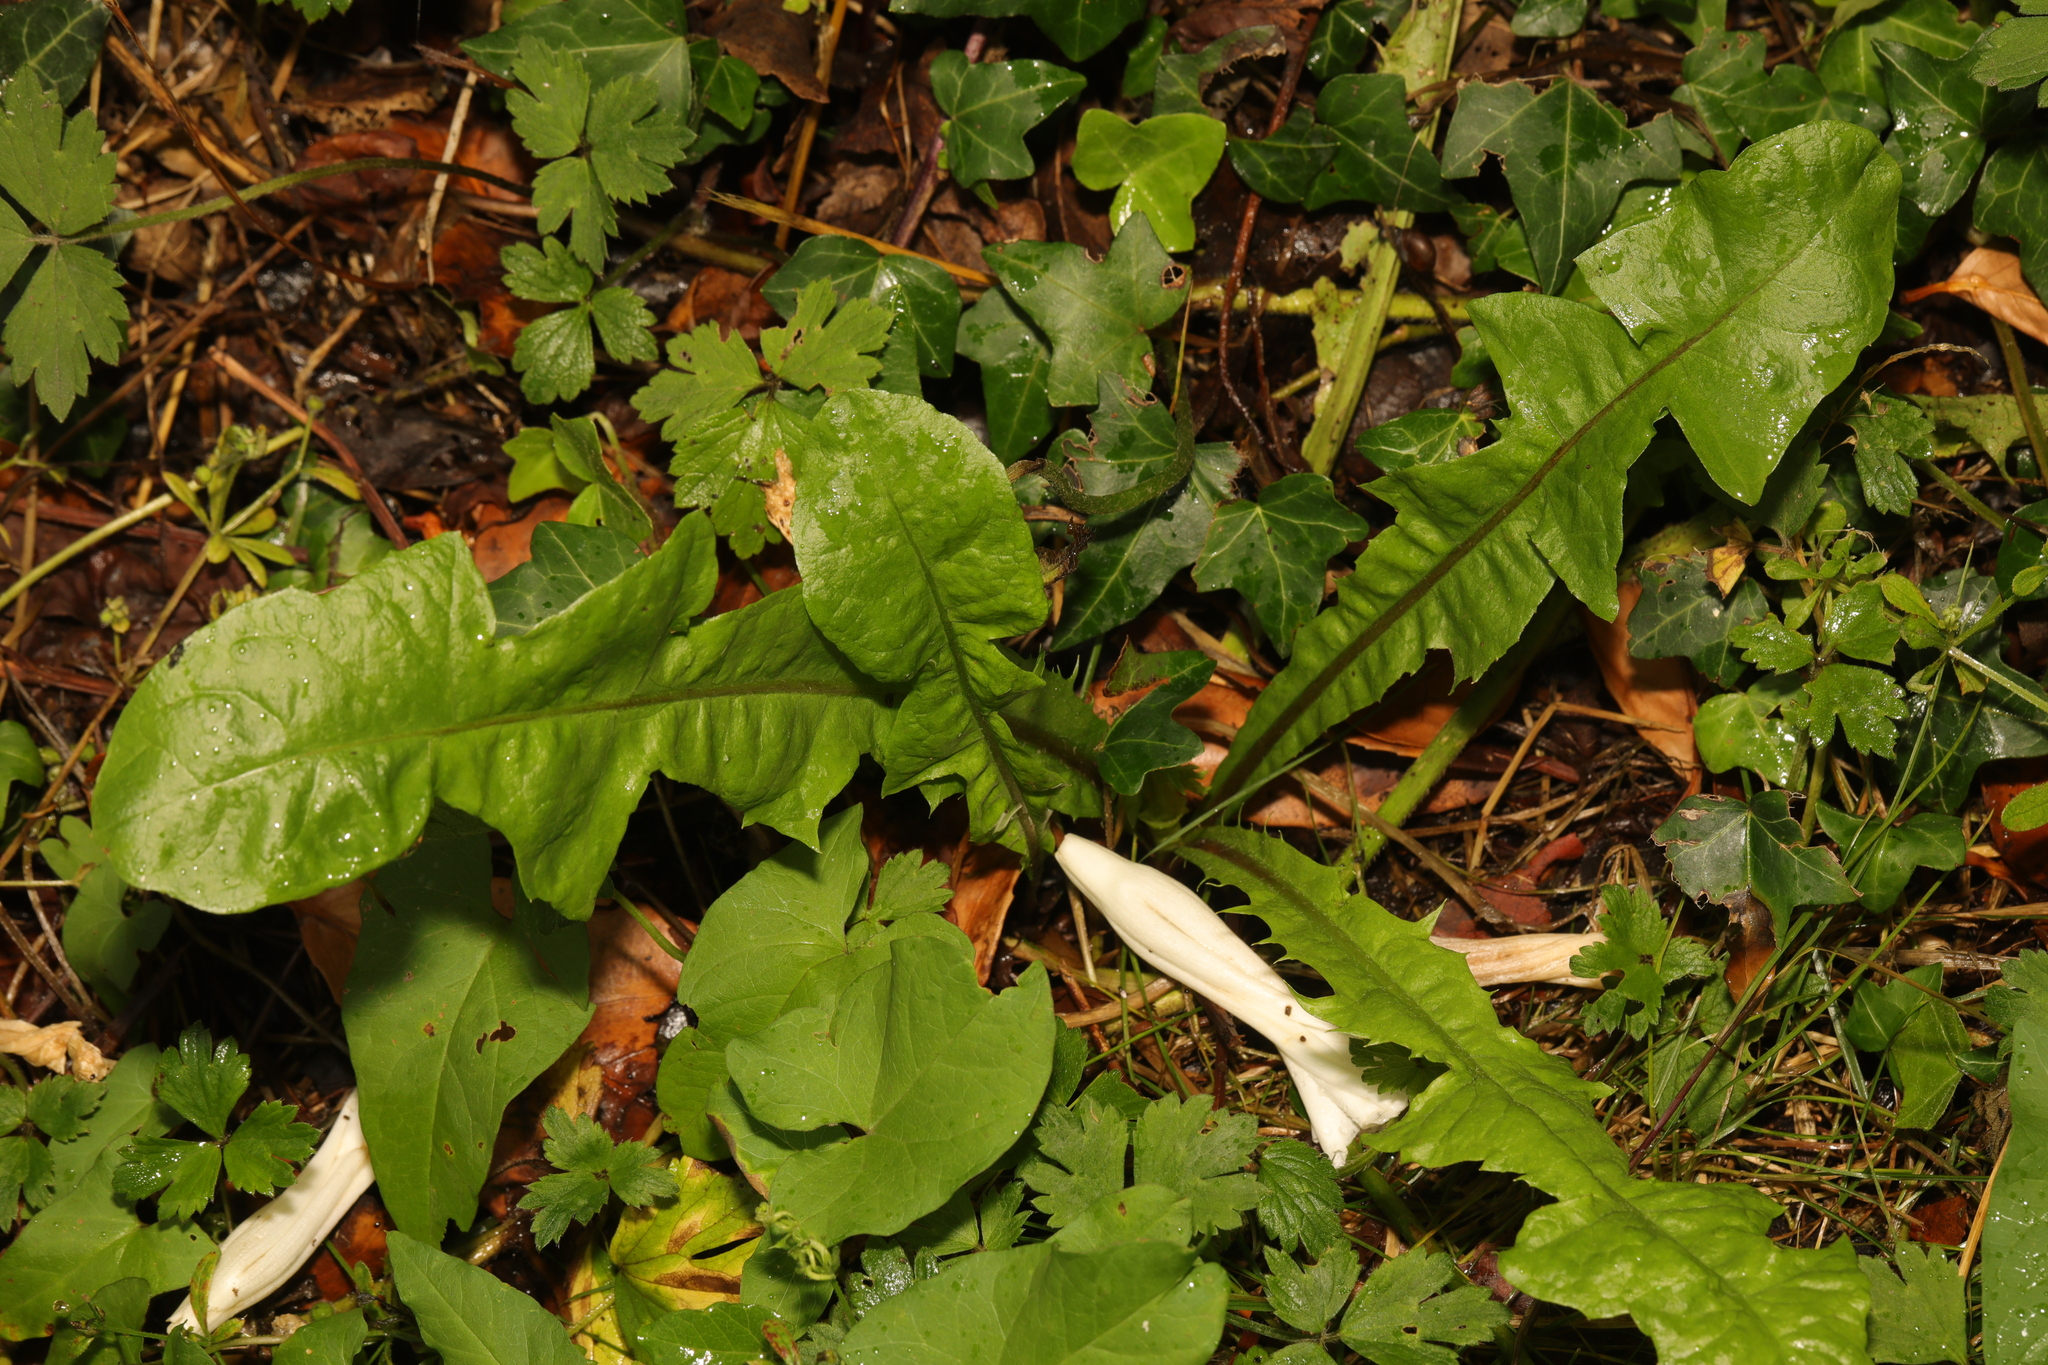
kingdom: Plantae
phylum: Tracheophyta
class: Magnoliopsida
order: Asterales
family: Asteraceae
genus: Taraxacum
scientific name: Taraxacum officinale
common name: Common dandelion
